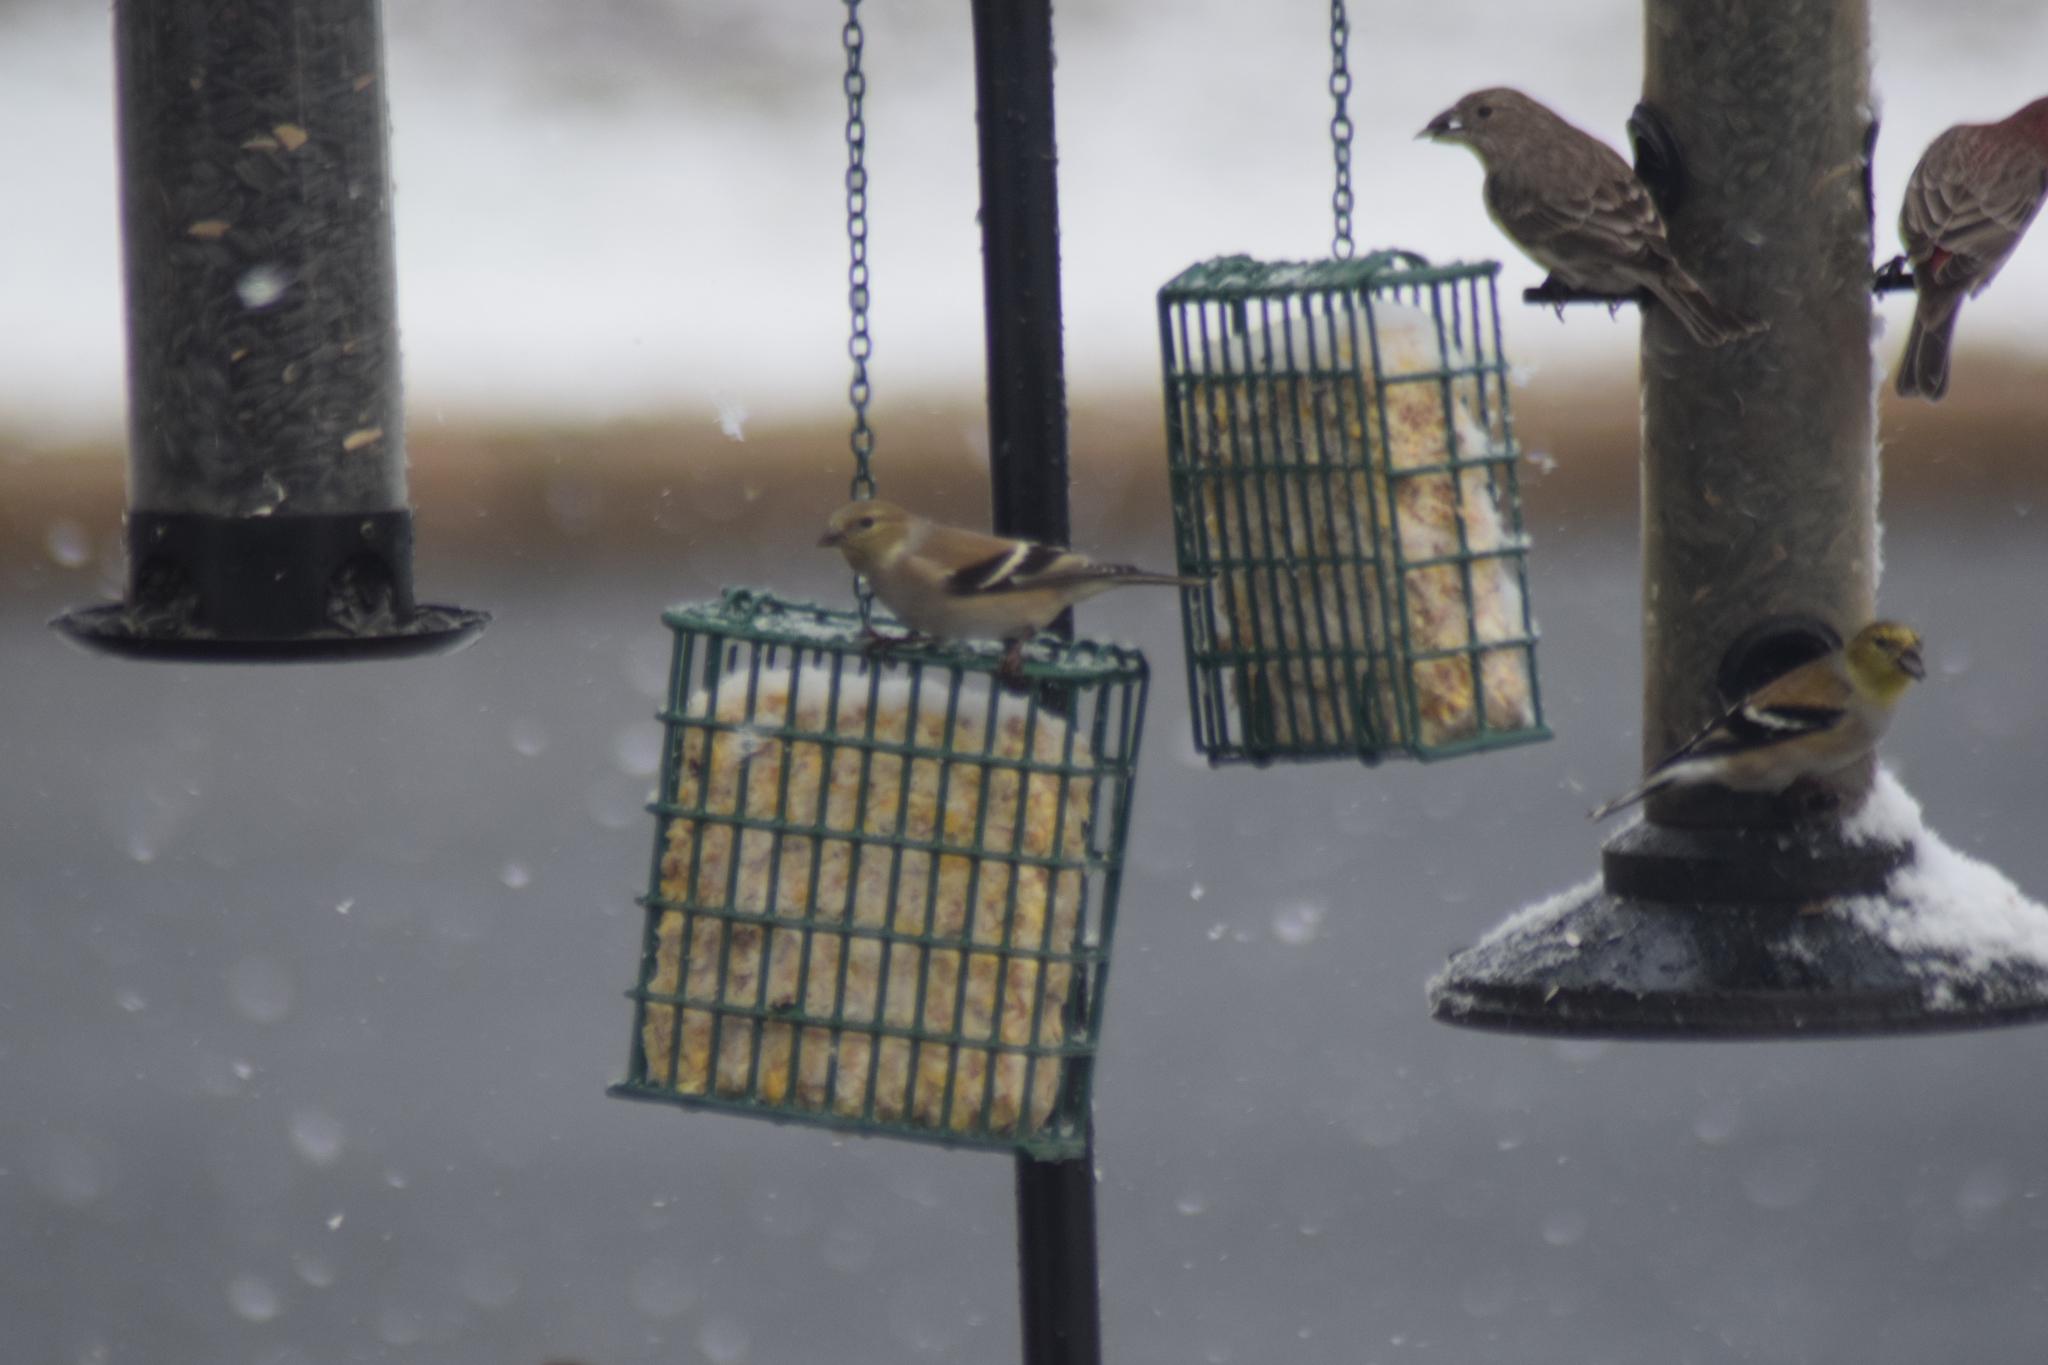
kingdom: Animalia
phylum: Chordata
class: Aves
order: Passeriformes
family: Fringillidae
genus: Spinus
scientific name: Spinus tristis
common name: American goldfinch
